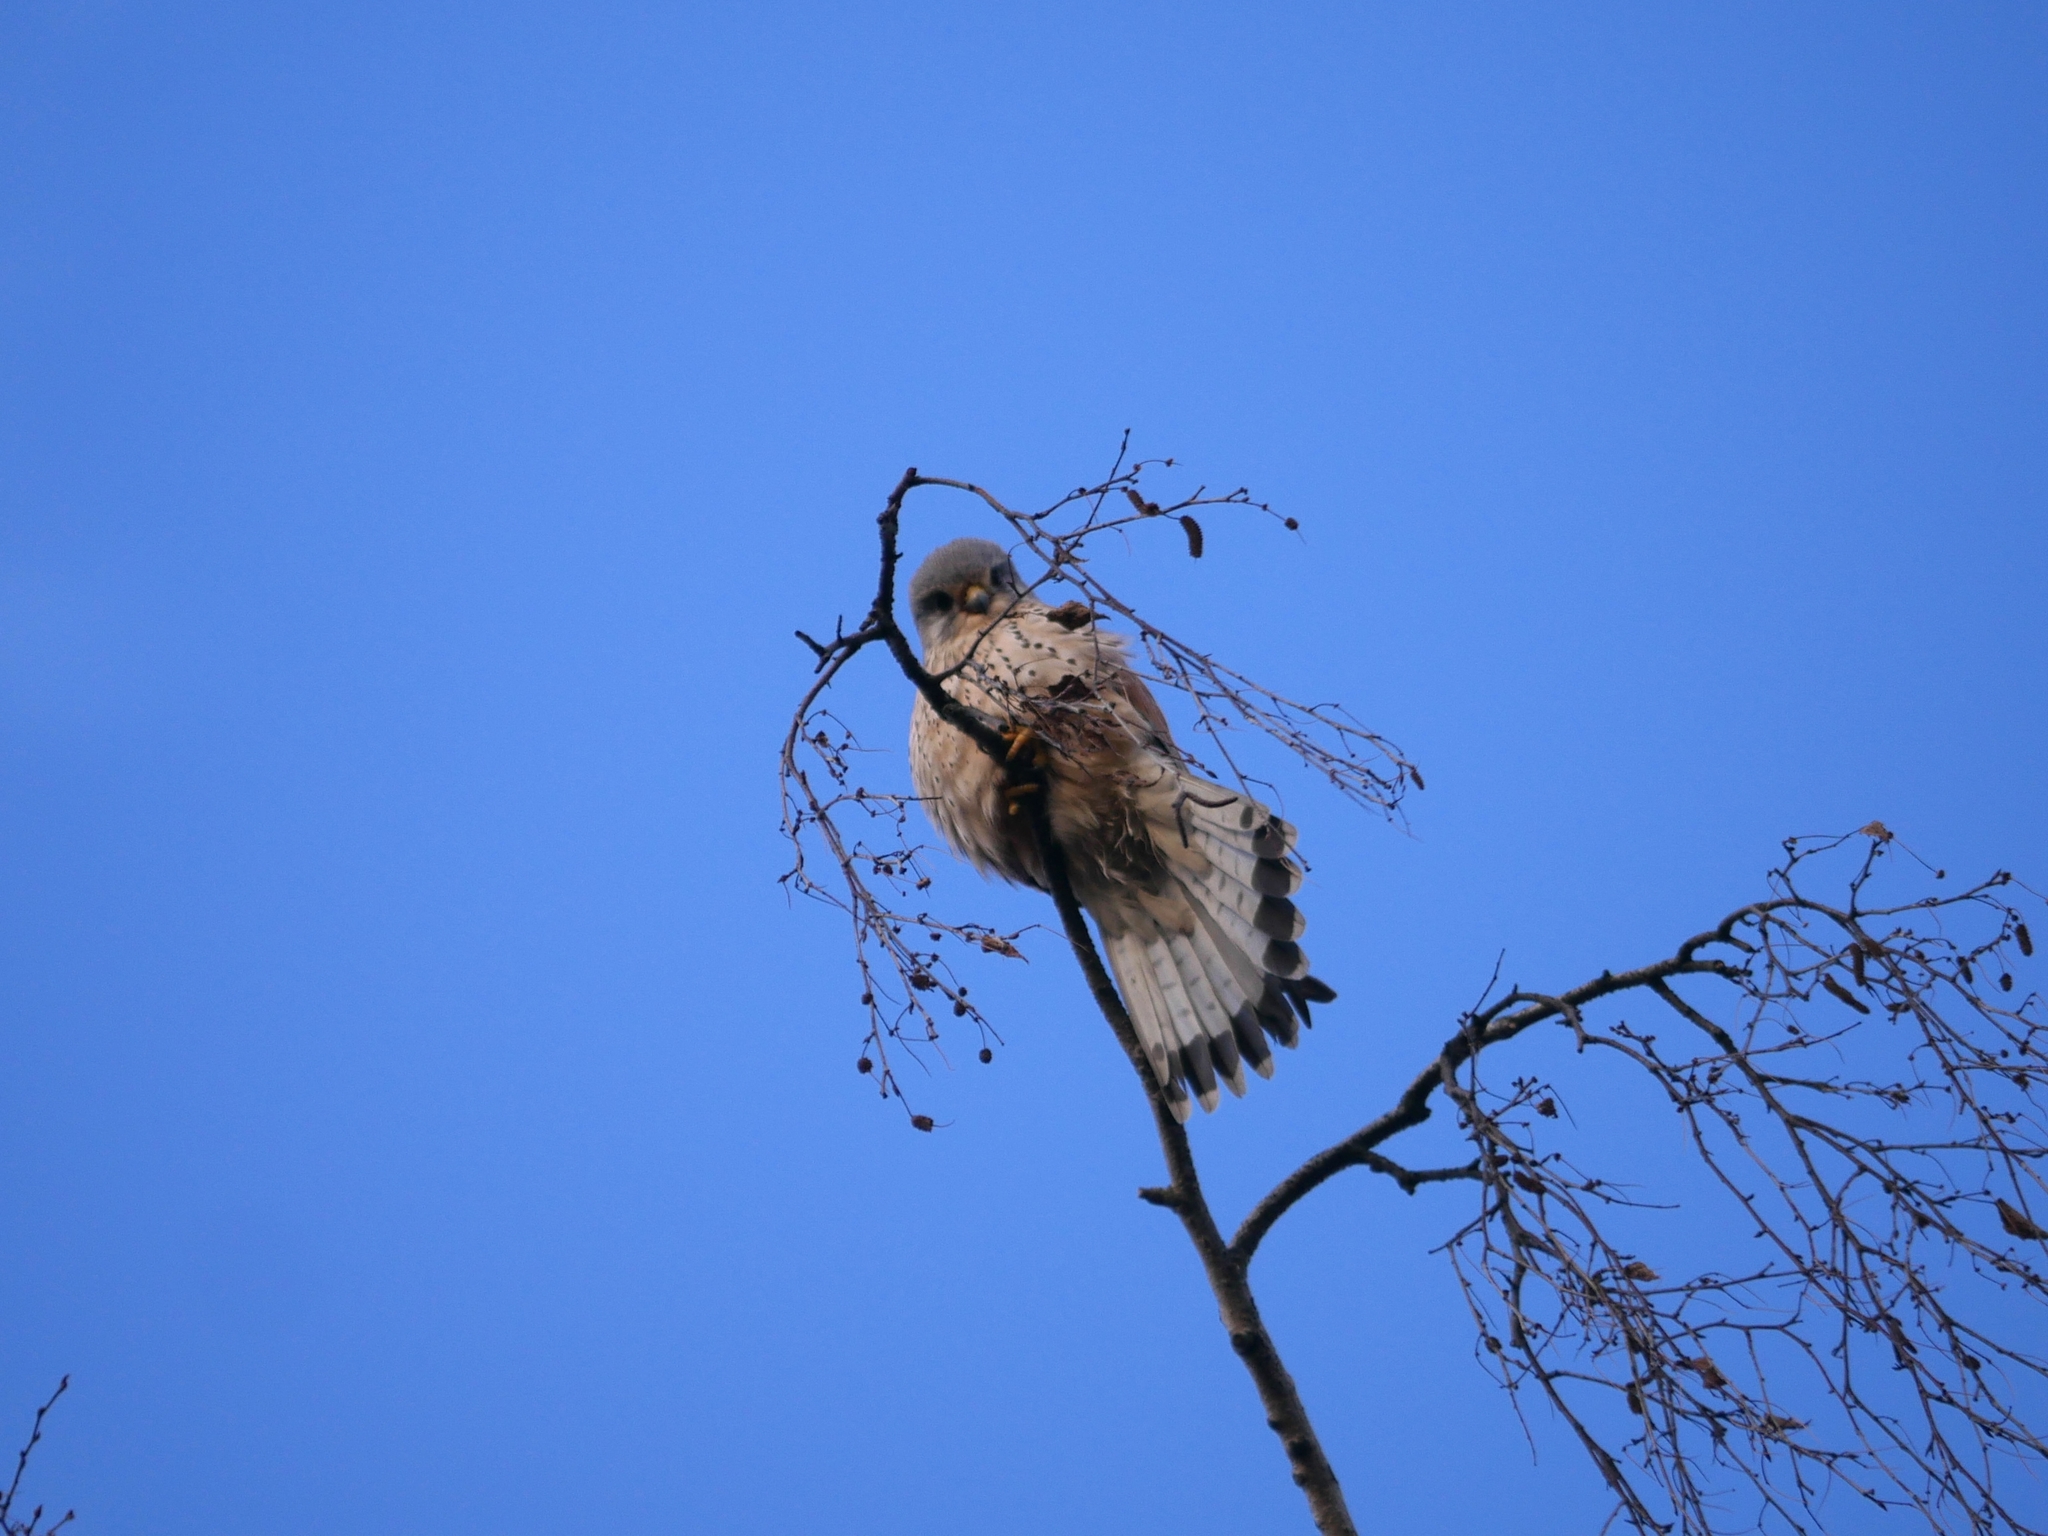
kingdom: Animalia
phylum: Chordata
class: Aves
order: Falconiformes
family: Falconidae
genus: Falco
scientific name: Falco tinnunculus
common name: Common kestrel
